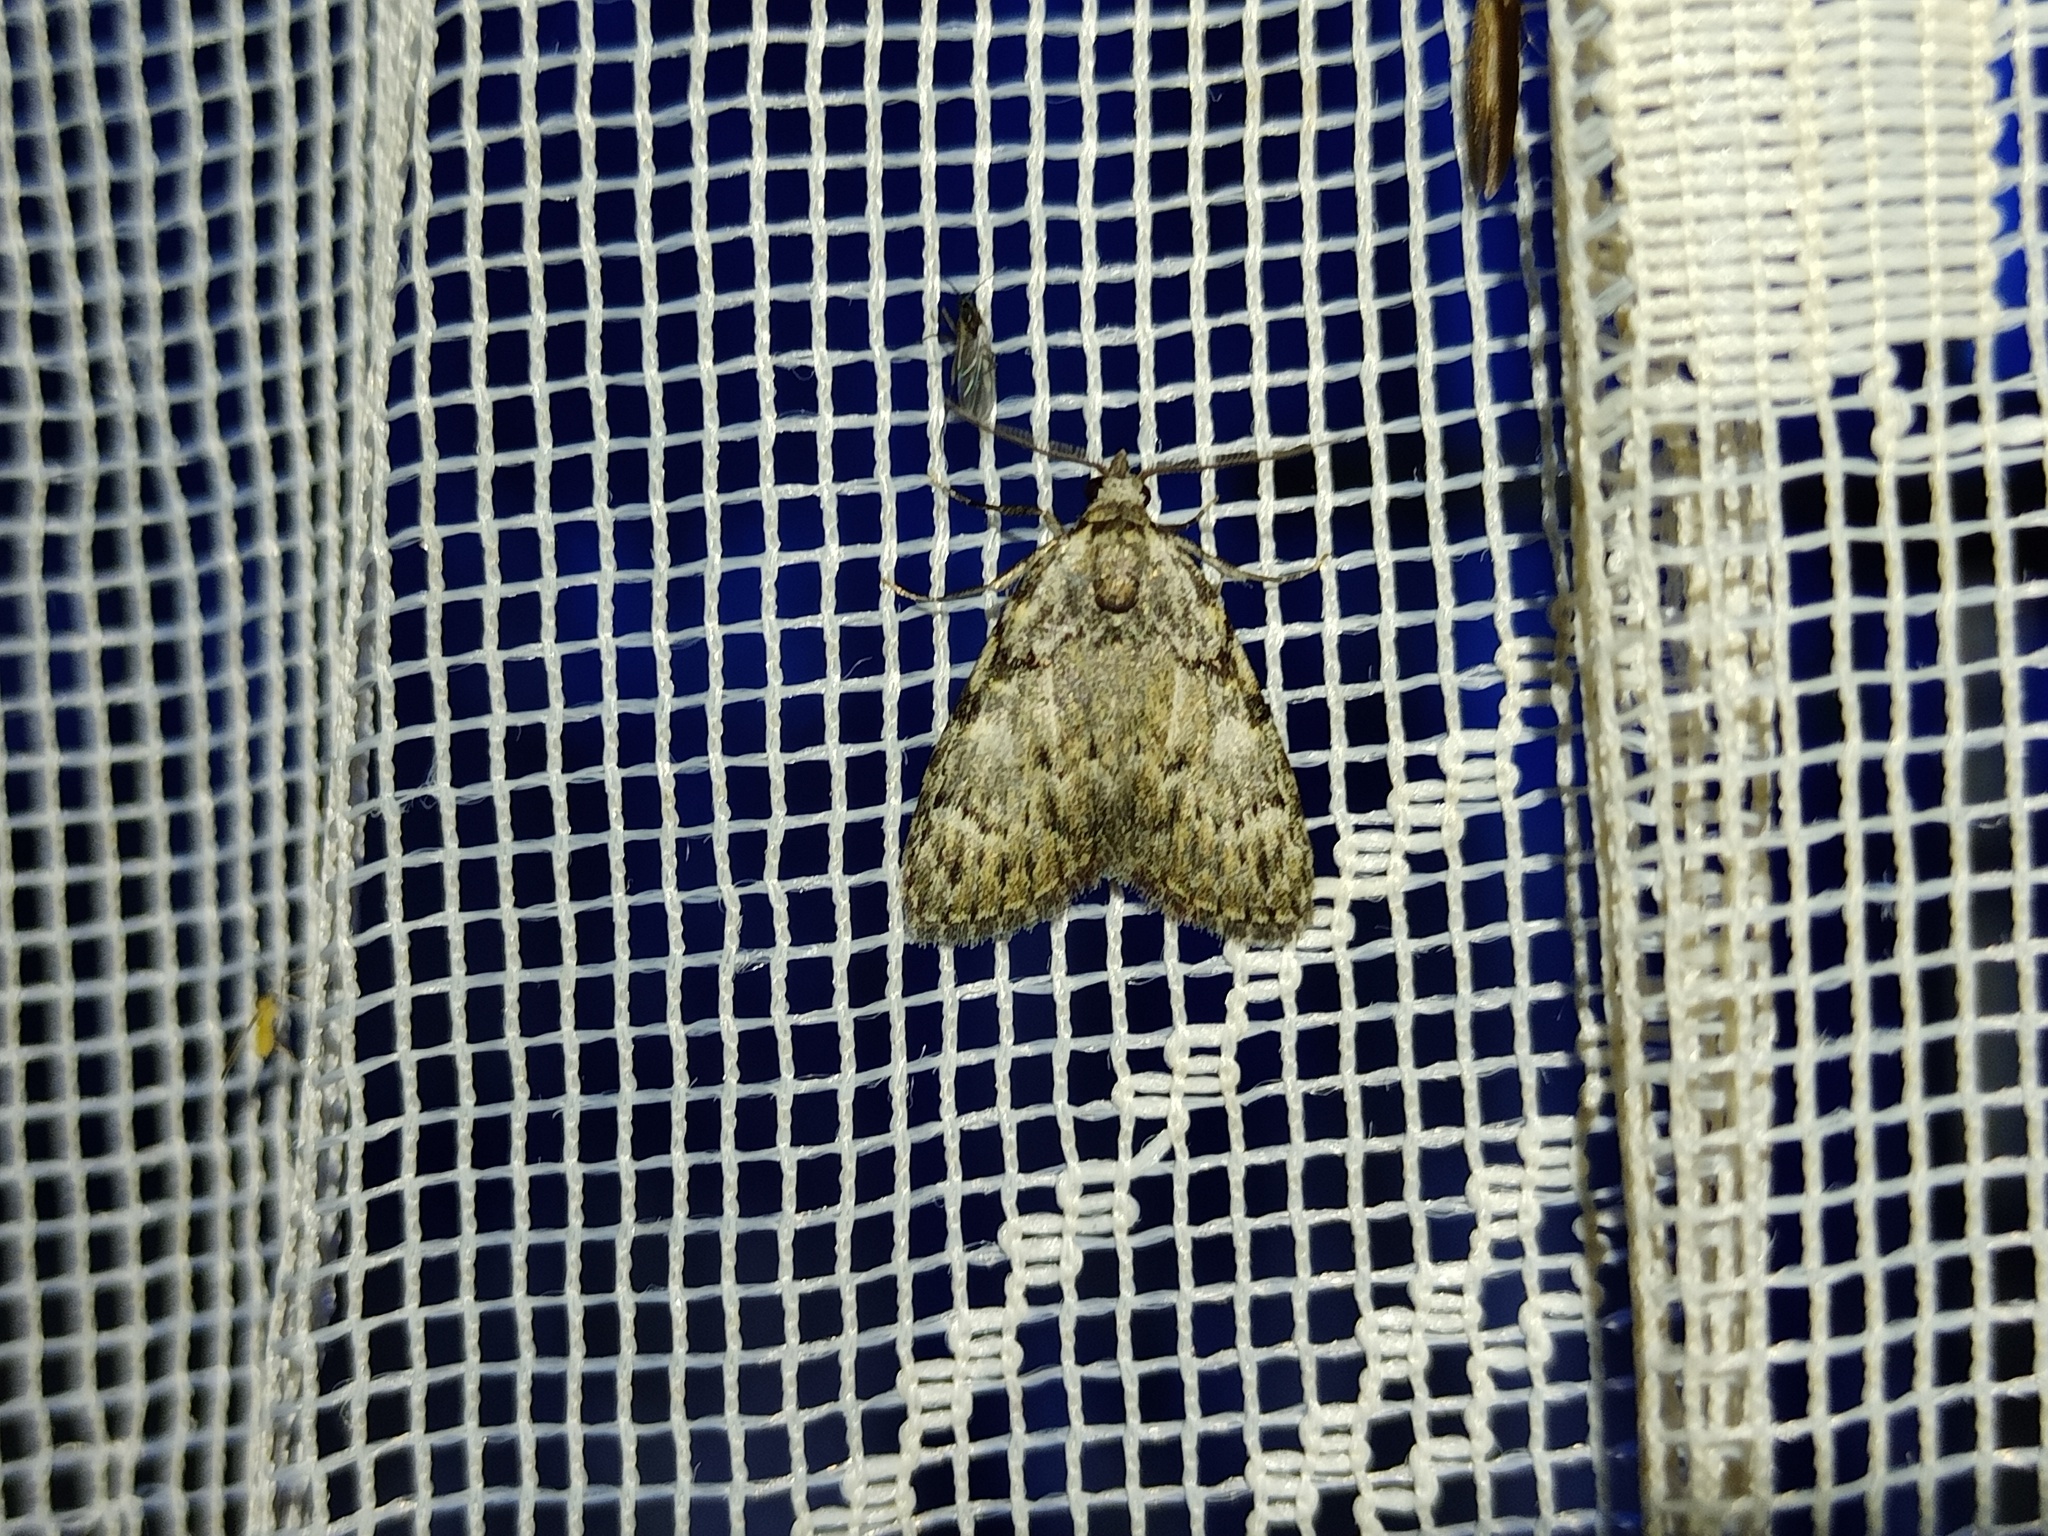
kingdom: Animalia
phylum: Arthropoda
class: Insecta
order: Lepidoptera
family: Nolidae
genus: Meganola
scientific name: Meganola strigula
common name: Small black arches
